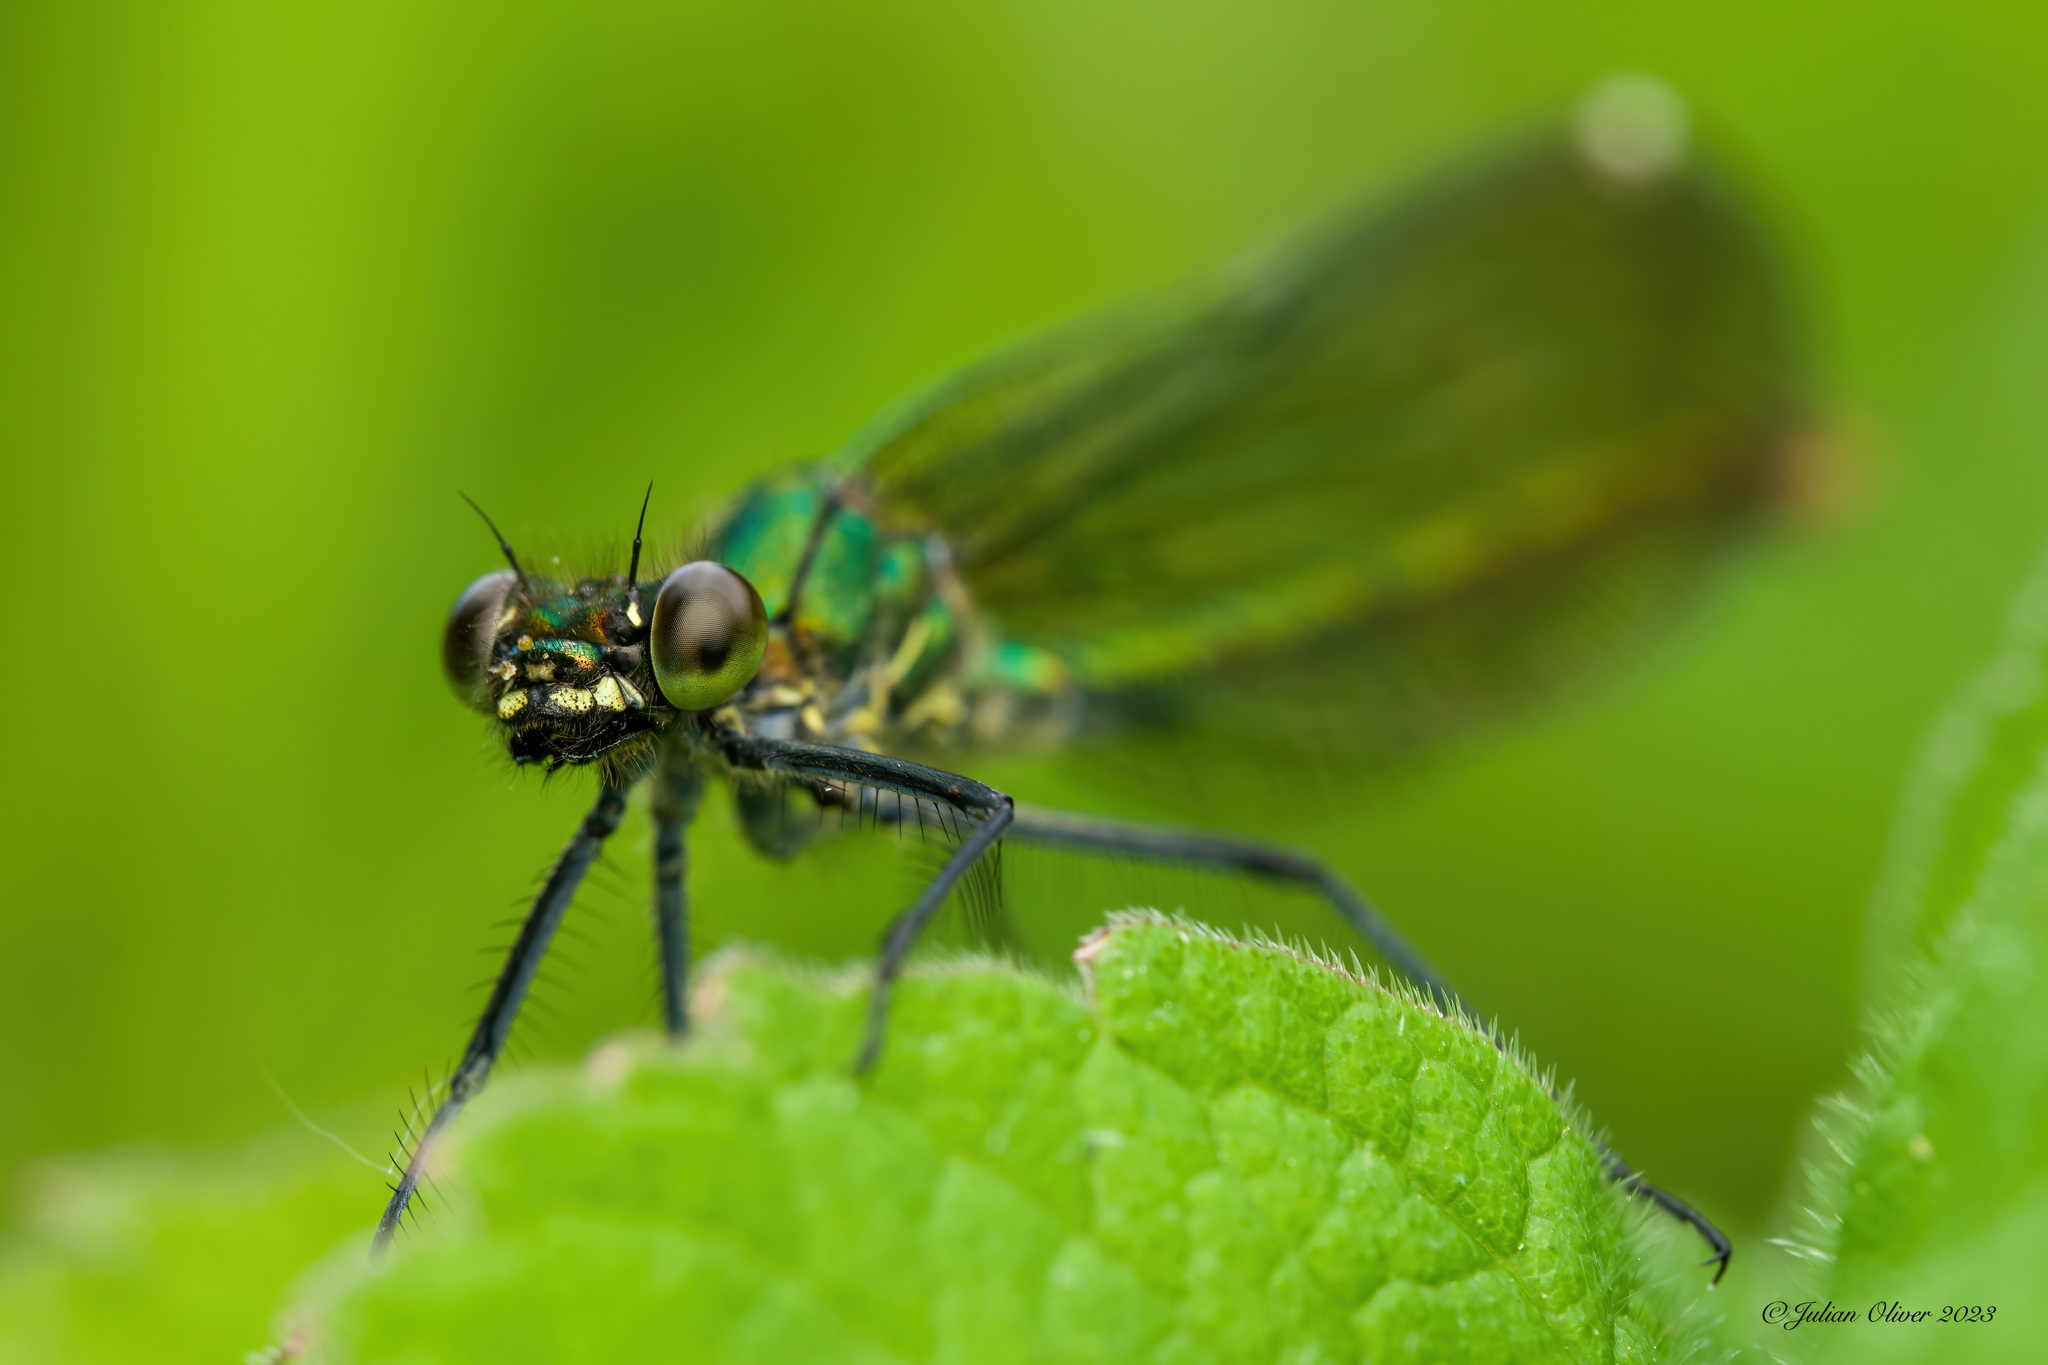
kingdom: Animalia
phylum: Arthropoda
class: Insecta
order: Odonata
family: Calopterygidae
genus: Calopteryx
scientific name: Calopteryx splendens
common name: Banded demoiselle
